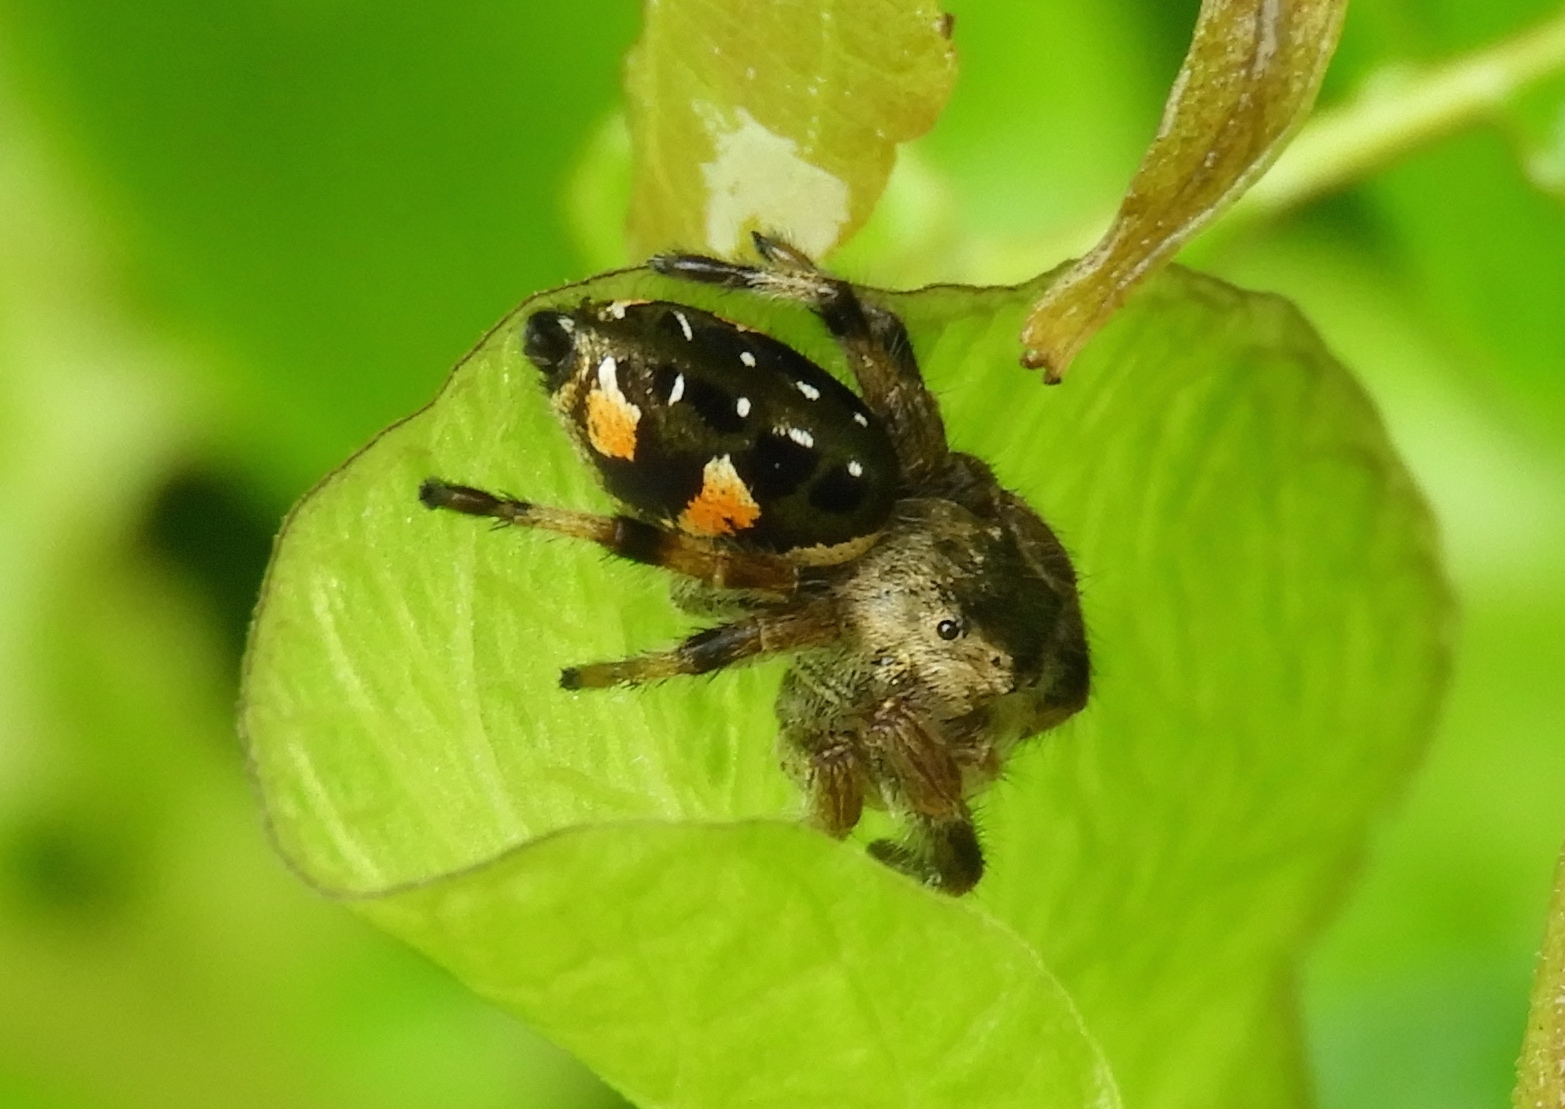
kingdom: Animalia
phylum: Arthropoda
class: Arachnida
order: Araneae
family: Salticidae
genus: Paraphidippus
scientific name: Paraphidippus aurantius
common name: Jumping spiders
